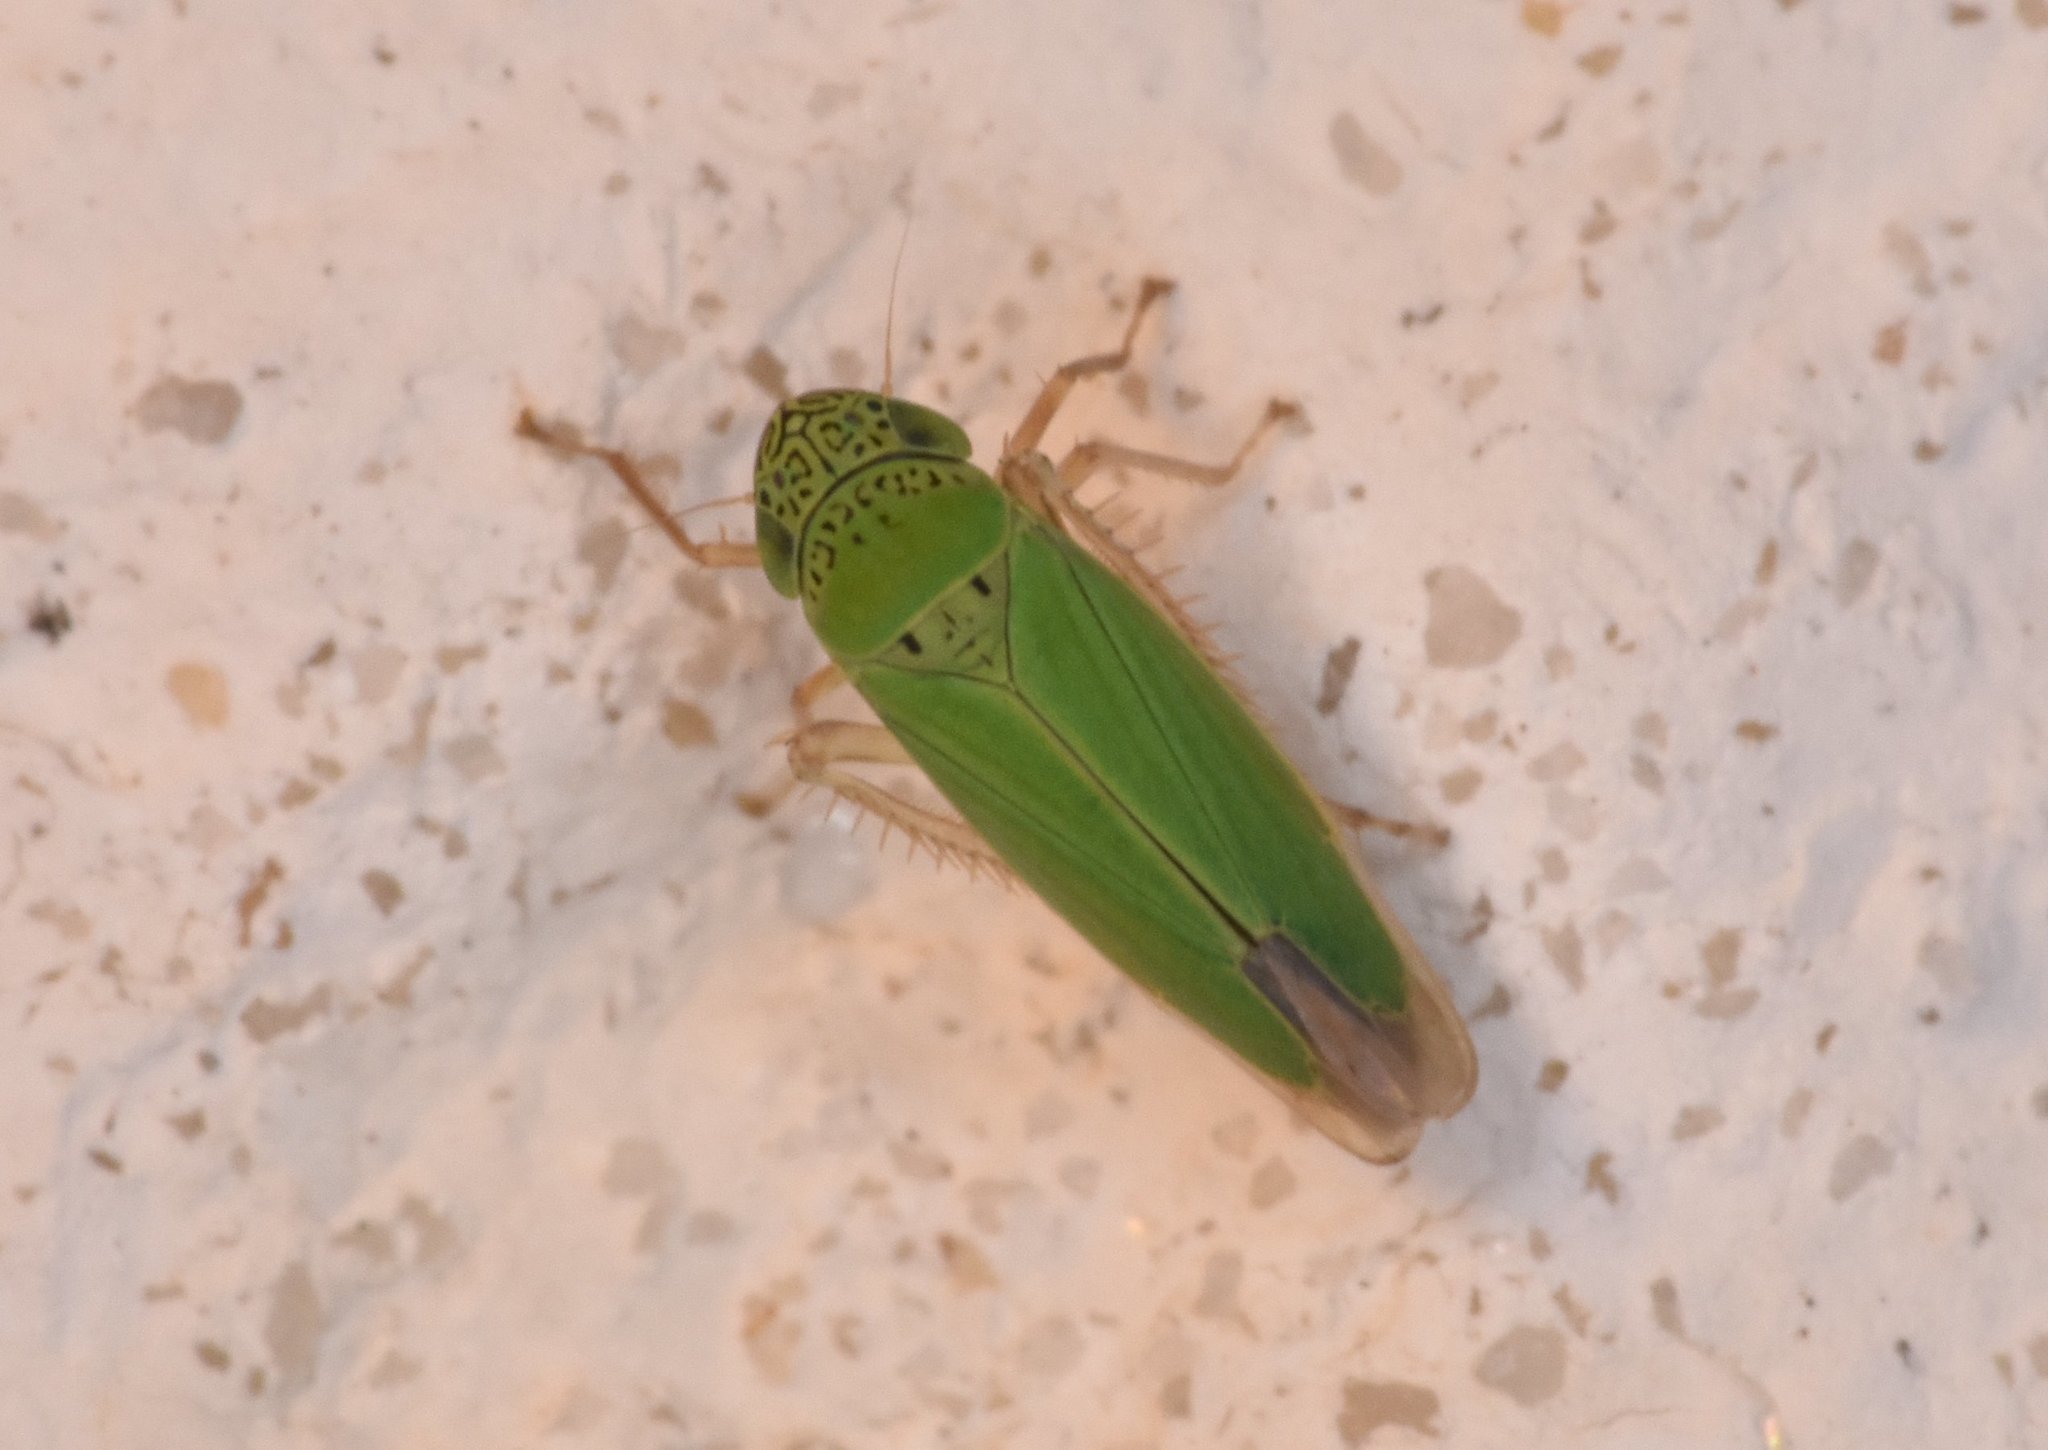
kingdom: Animalia
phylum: Arthropoda
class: Insecta
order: Hemiptera
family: Cicadellidae
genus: Hortensia
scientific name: Hortensia similis
